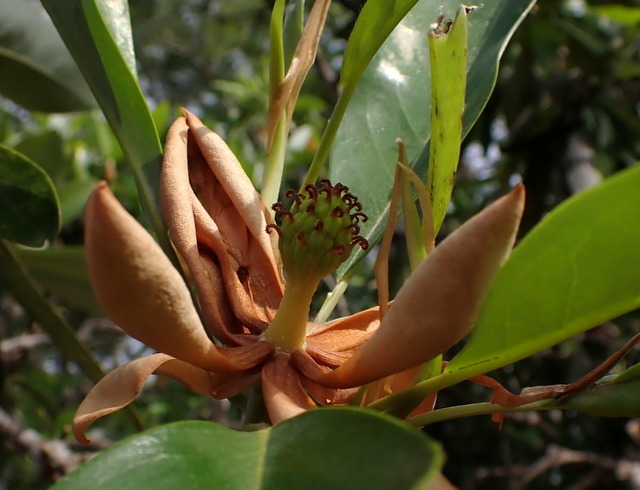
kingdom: Plantae
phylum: Tracheophyta
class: Magnoliopsida
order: Magnoliales
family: Magnoliaceae
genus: Magnolia
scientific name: Magnolia virginiana
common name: Swamp bay
